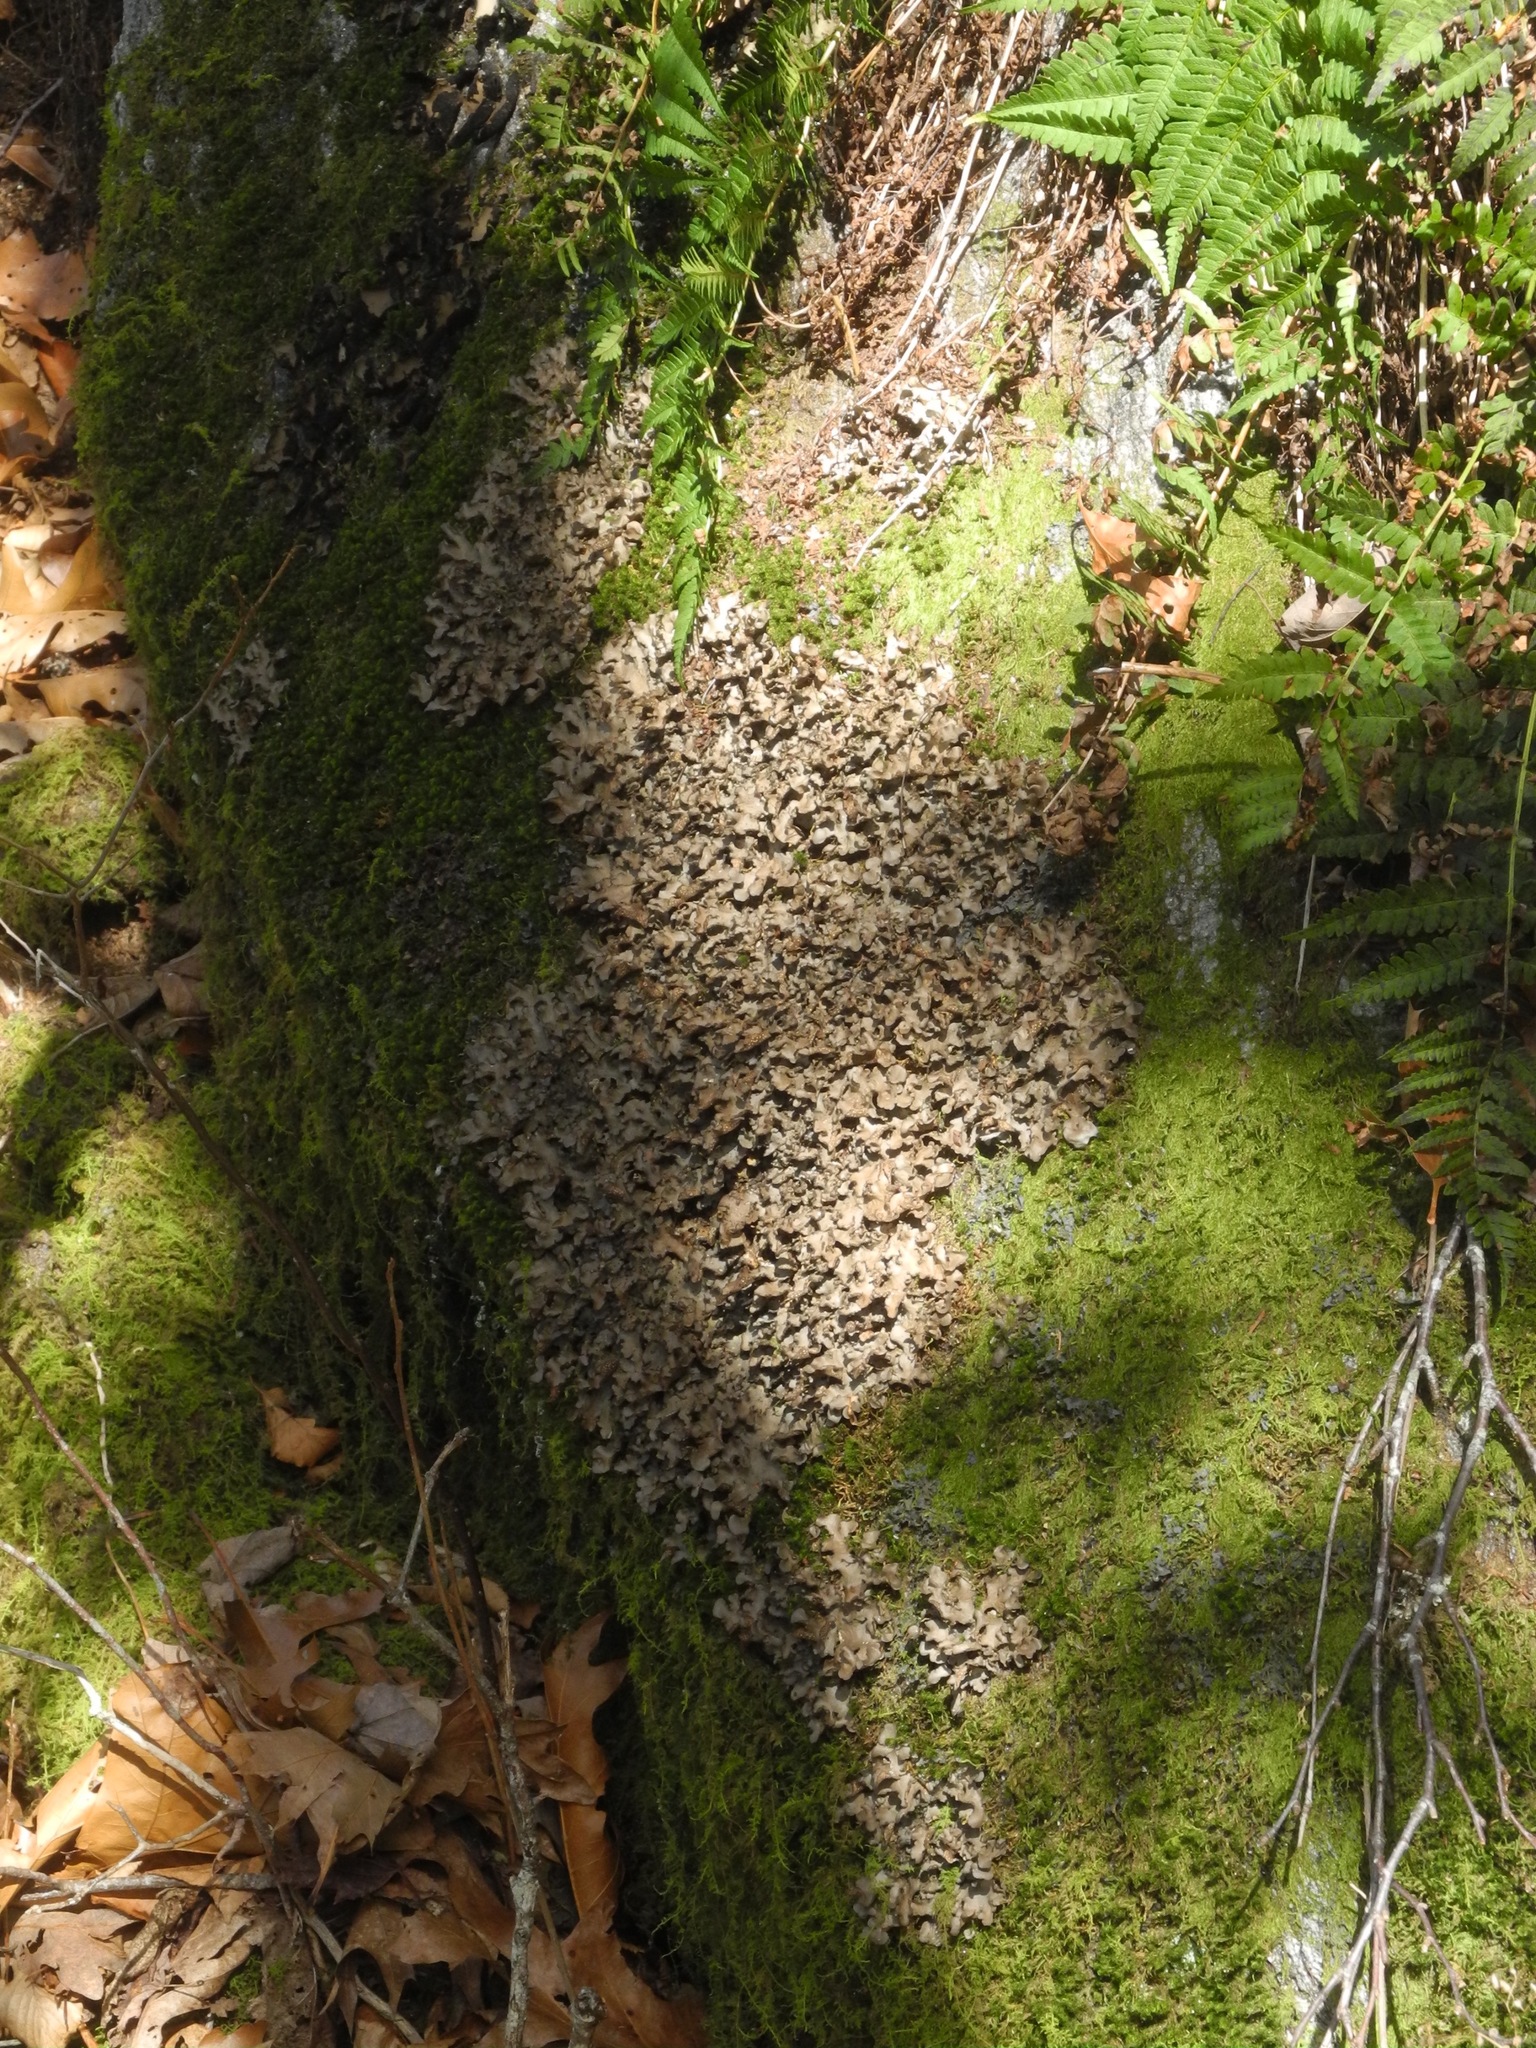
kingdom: Fungi
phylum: Ascomycota
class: Lecanoromycetes
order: Peltigerales
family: Lobariaceae
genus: Sticta
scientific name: Sticta beauvoisii
